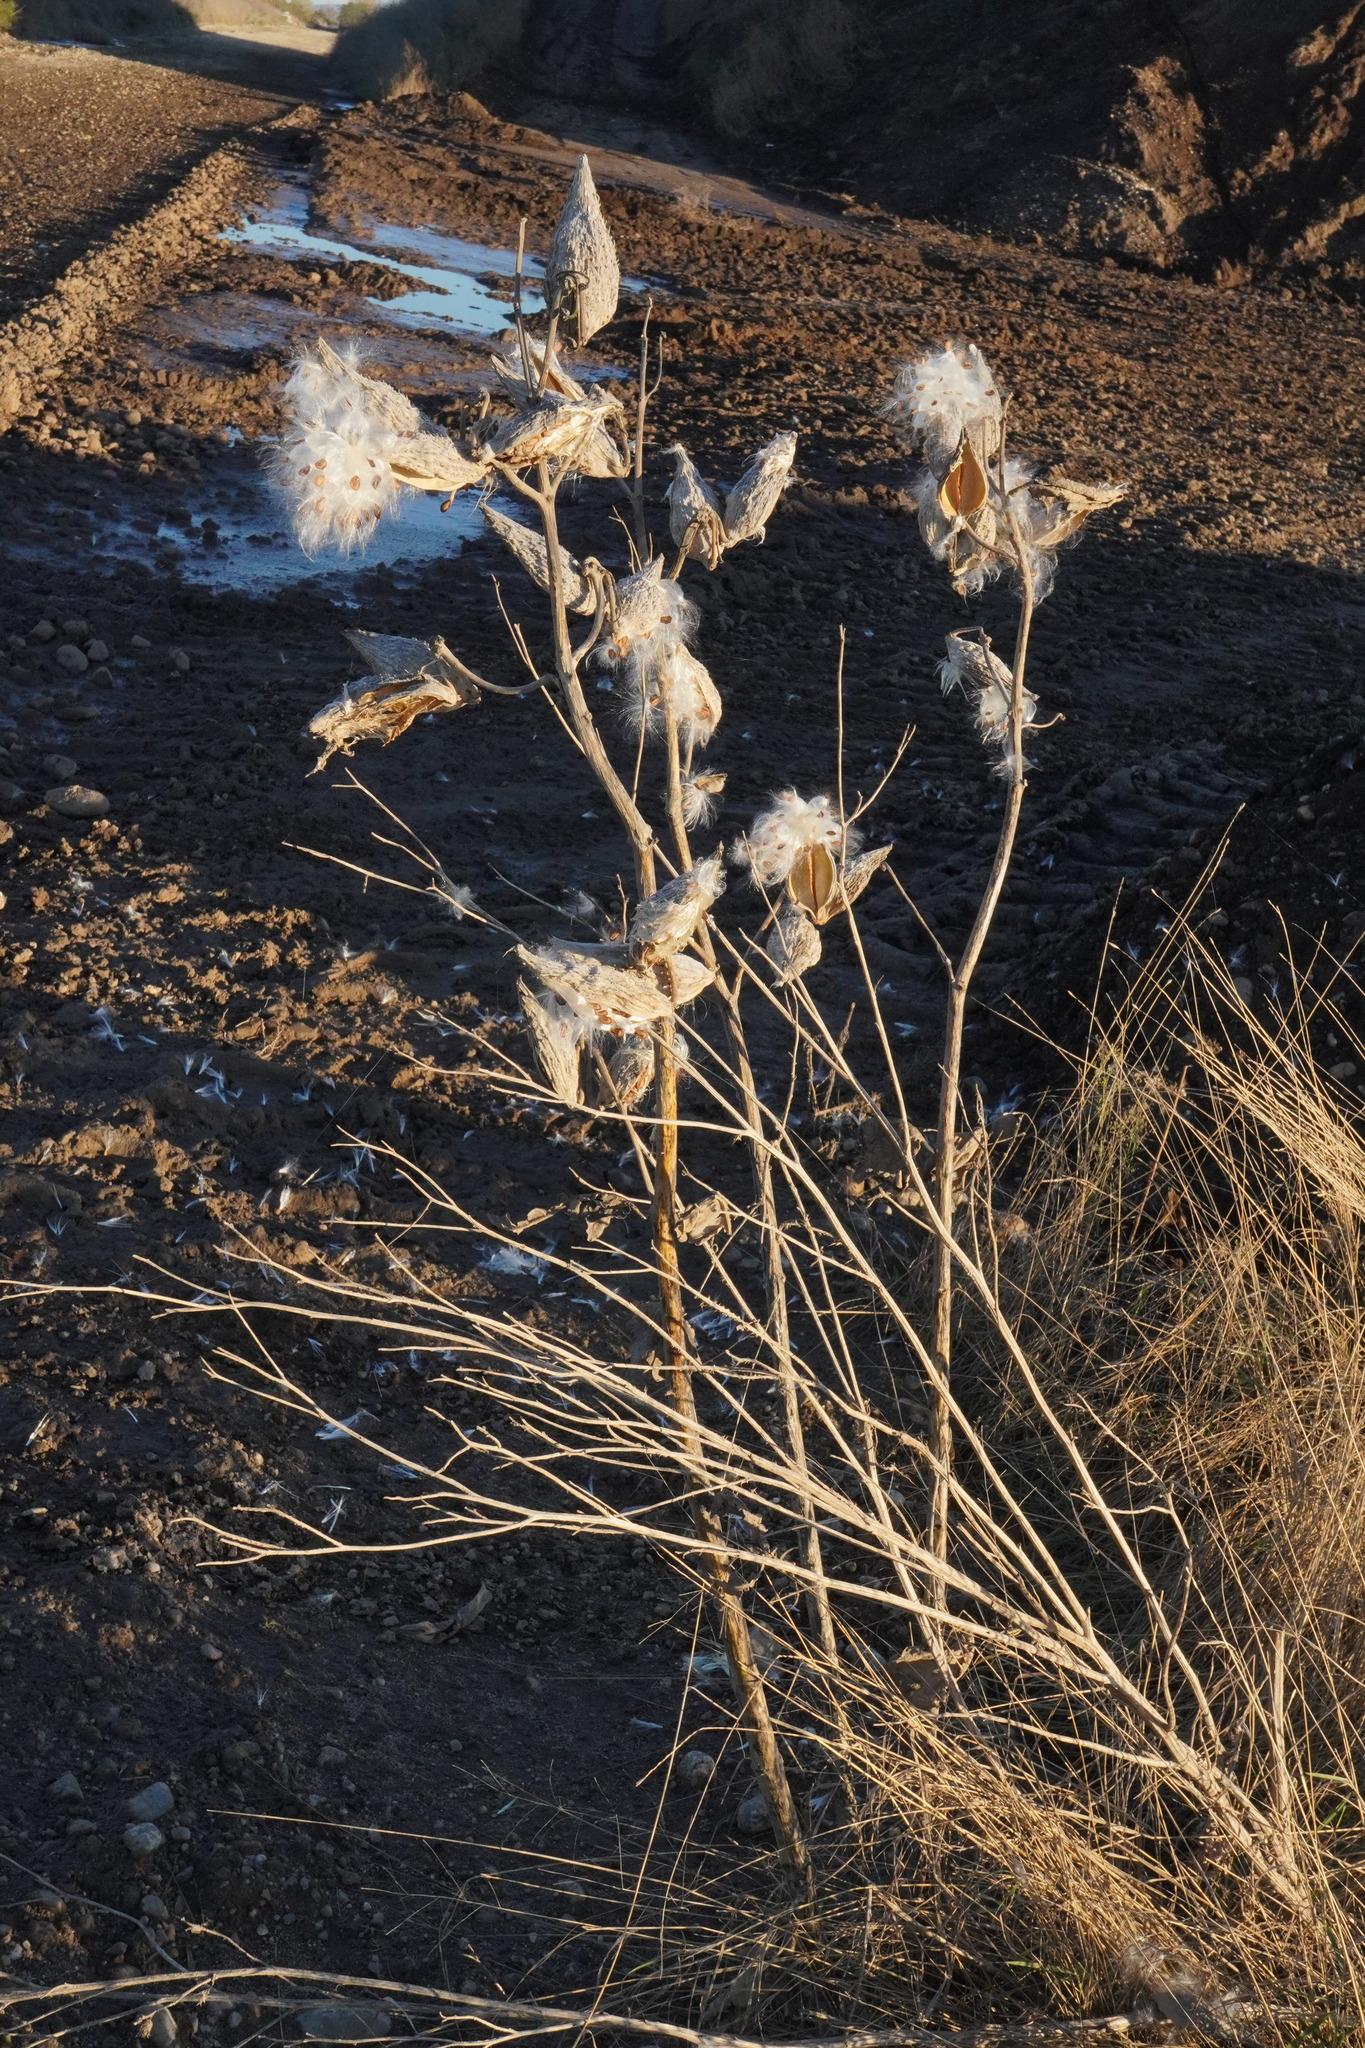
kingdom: Plantae
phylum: Tracheophyta
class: Magnoliopsida
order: Gentianales
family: Apocynaceae
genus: Asclepias
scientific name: Asclepias syriaca
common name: Common milkweed
